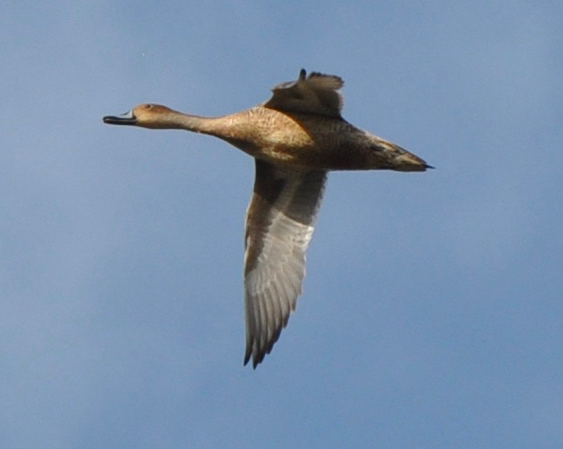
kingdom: Animalia
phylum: Chordata
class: Aves
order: Anseriformes
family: Anatidae
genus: Anas
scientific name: Anas acuta
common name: Northern pintail
